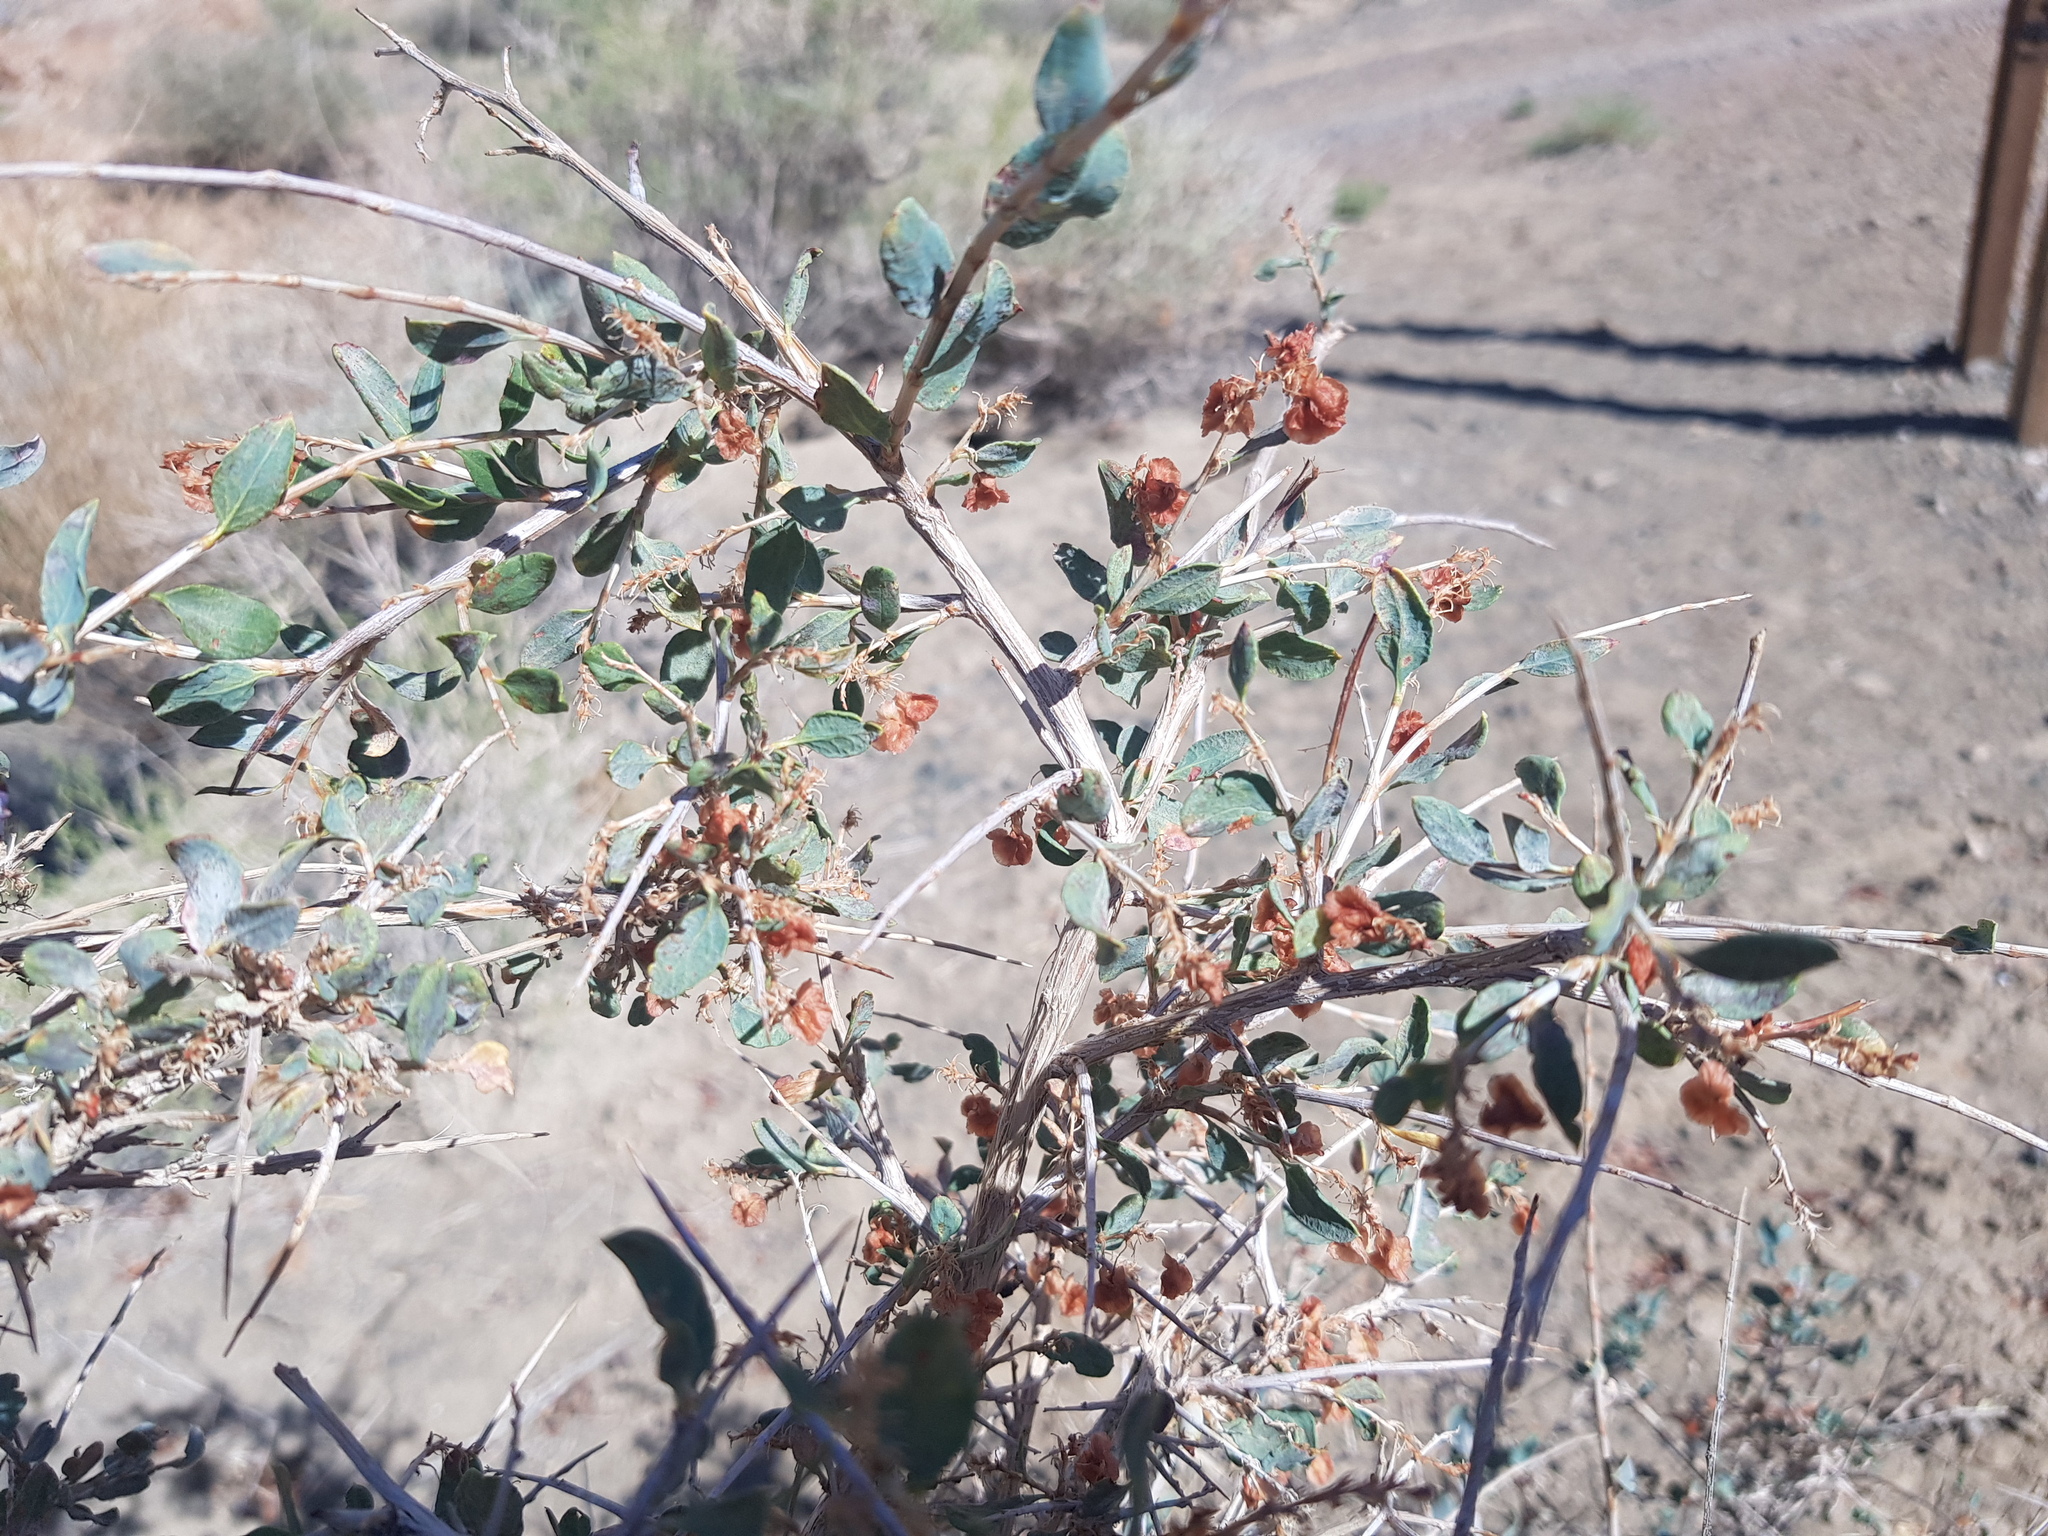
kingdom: Plantae
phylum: Tracheophyta
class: Magnoliopsida
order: Caryophyllales
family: Polygonaceae
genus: Atraphaxis
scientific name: Atraphaxis frutescens
